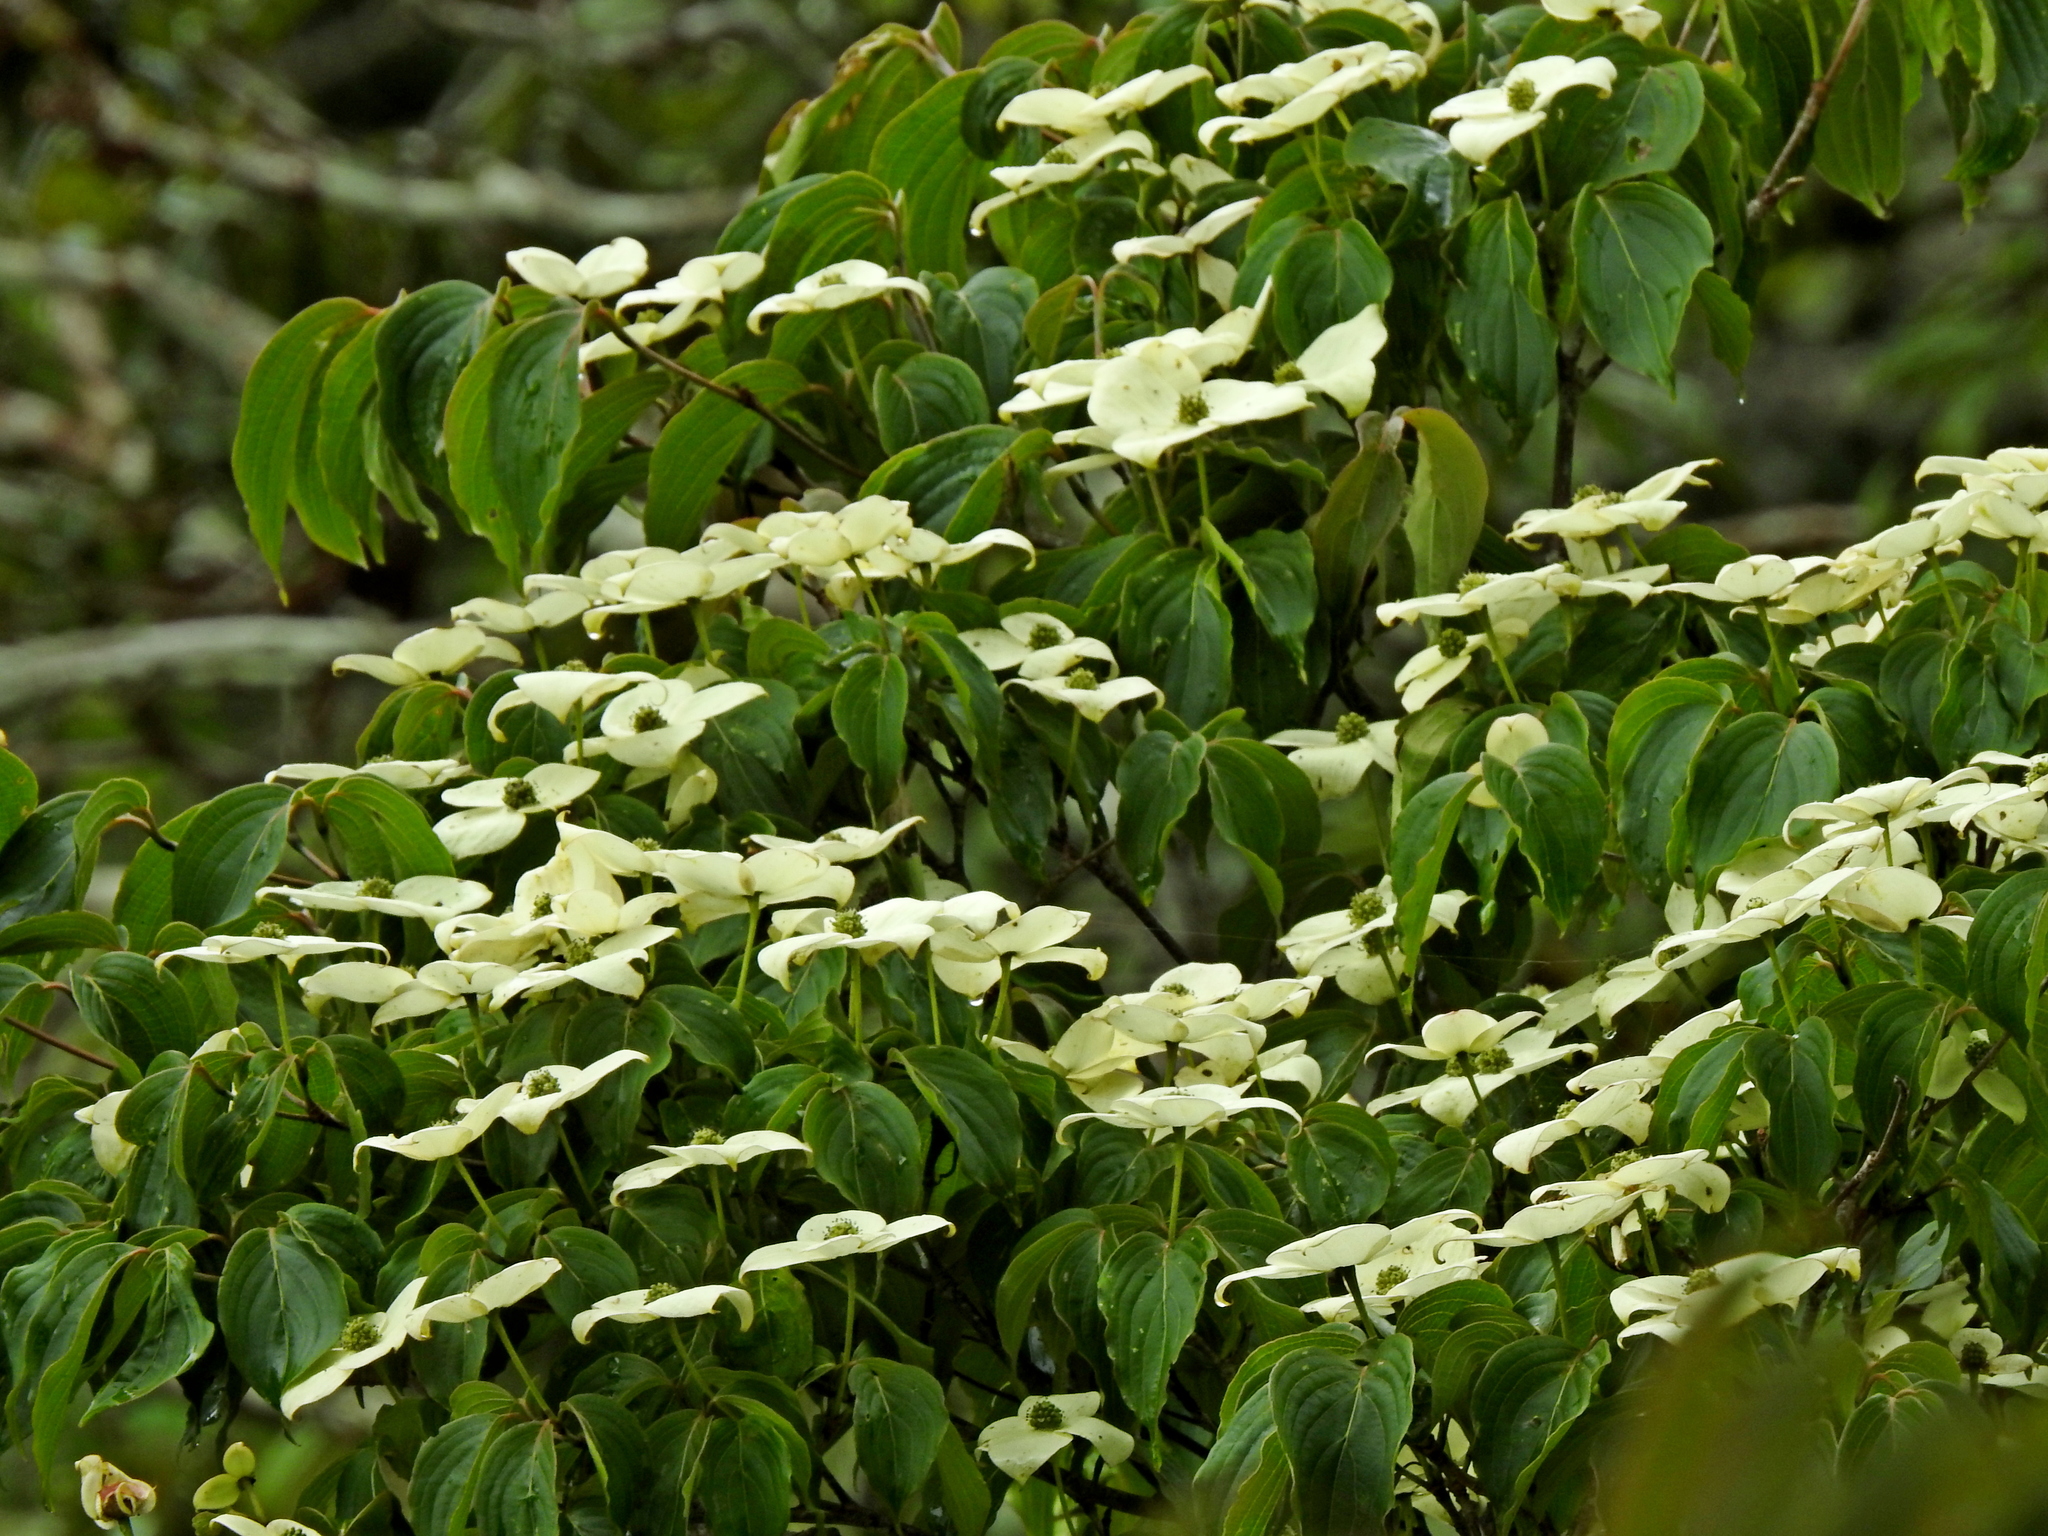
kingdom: Plantae
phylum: Tracheophyta
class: Magnoliopsida
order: Cornales
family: Cornaceae
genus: Cornus
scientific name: Cornus kousa
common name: Japanese dogwood
